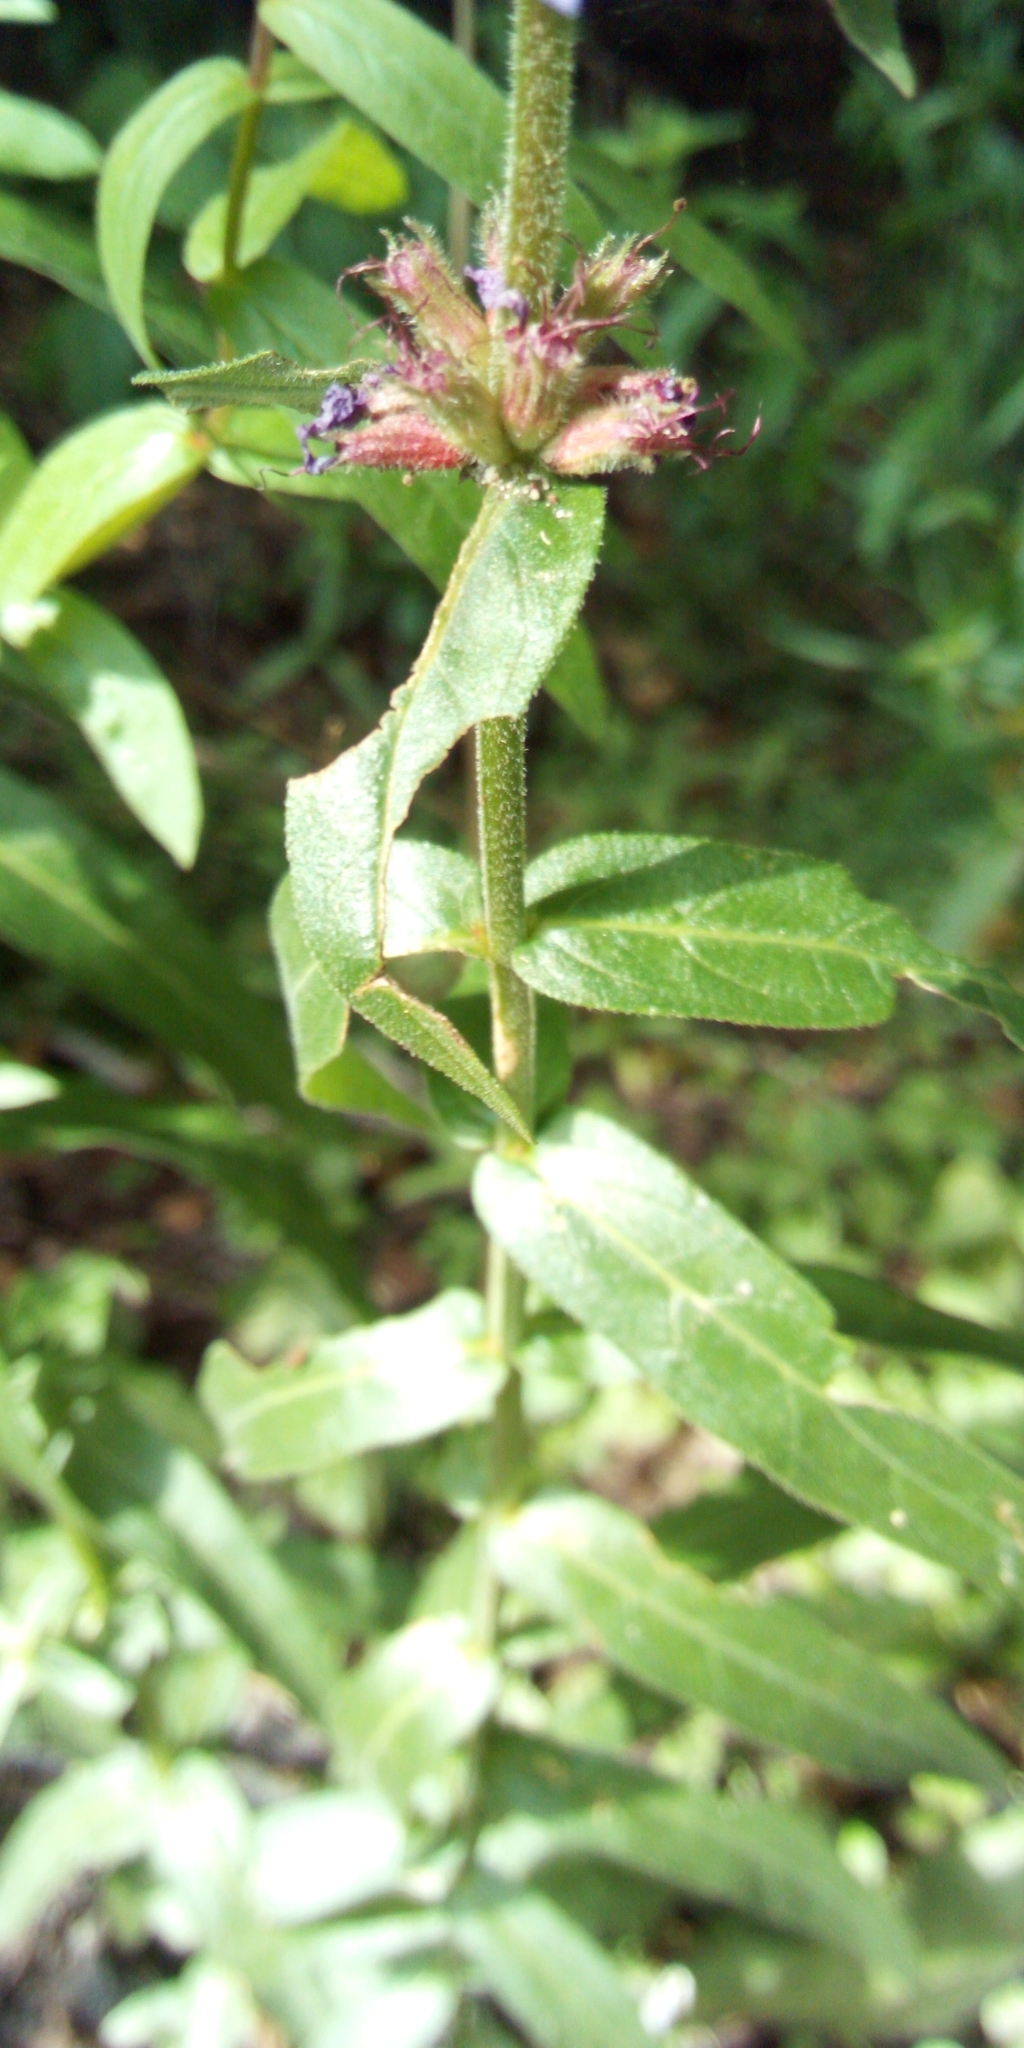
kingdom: Plantae
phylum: Tracheophyta
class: Magnoliopsida
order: Myrtales
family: Lythraceae
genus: Lythrum
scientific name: Lythrum salicaria
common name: Purple loosestrife
